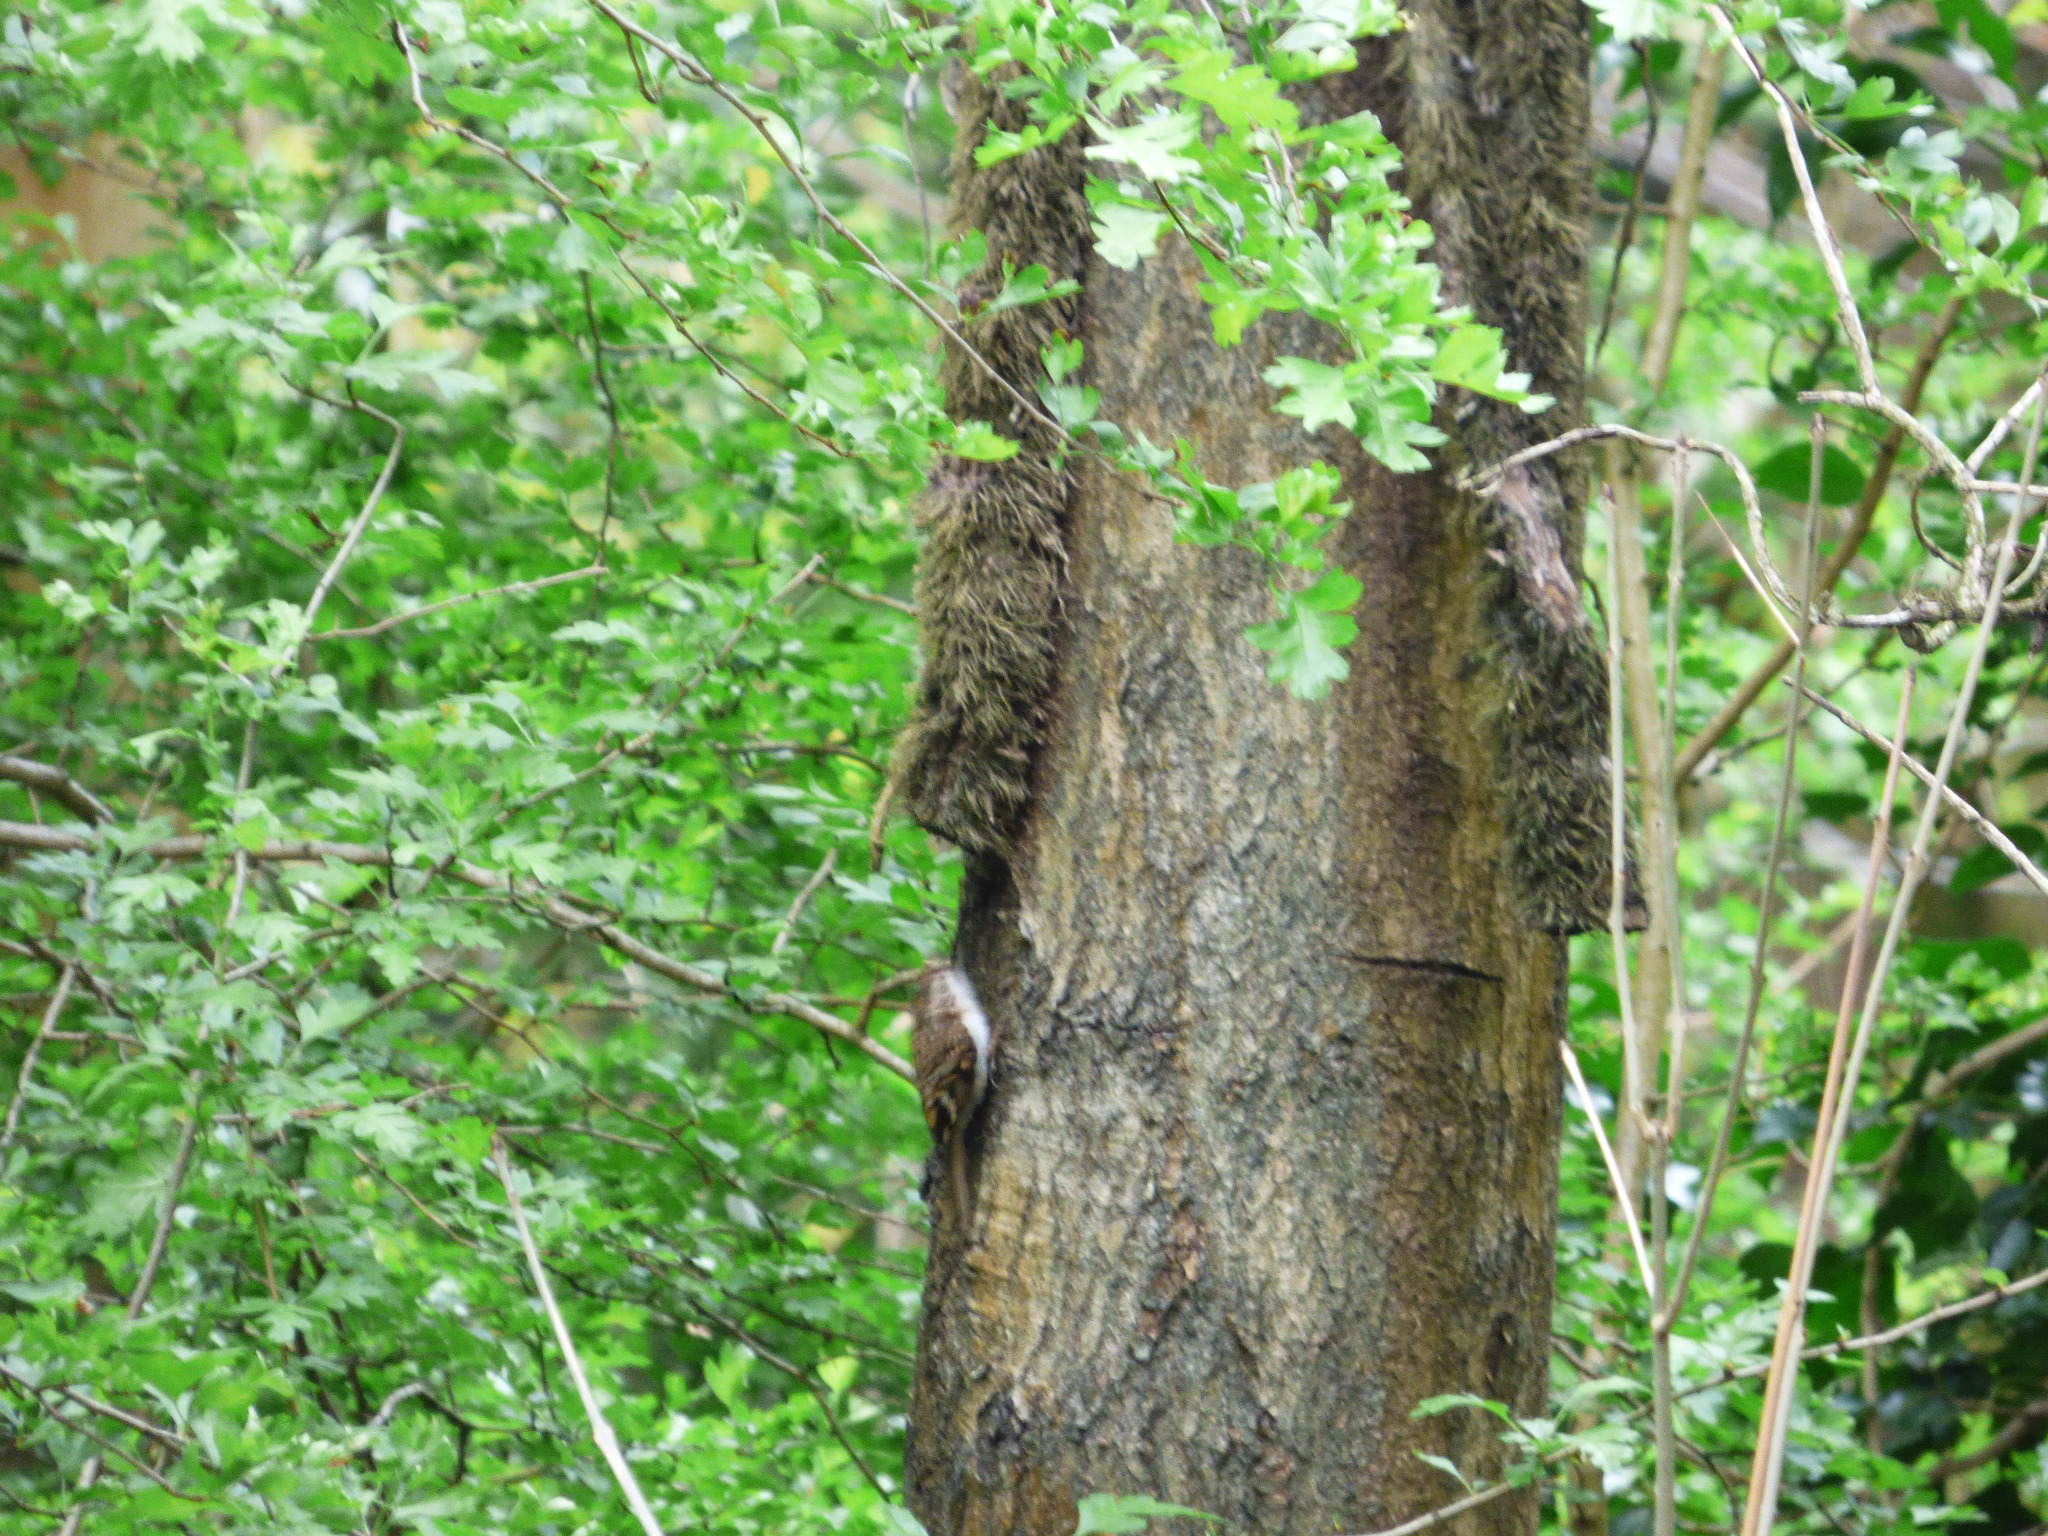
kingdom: Animalia
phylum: Chordata
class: Aves
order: Passeriformes
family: Certhiidae
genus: Certhia
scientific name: Certhia familiaris
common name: Eurasian treecreeper
